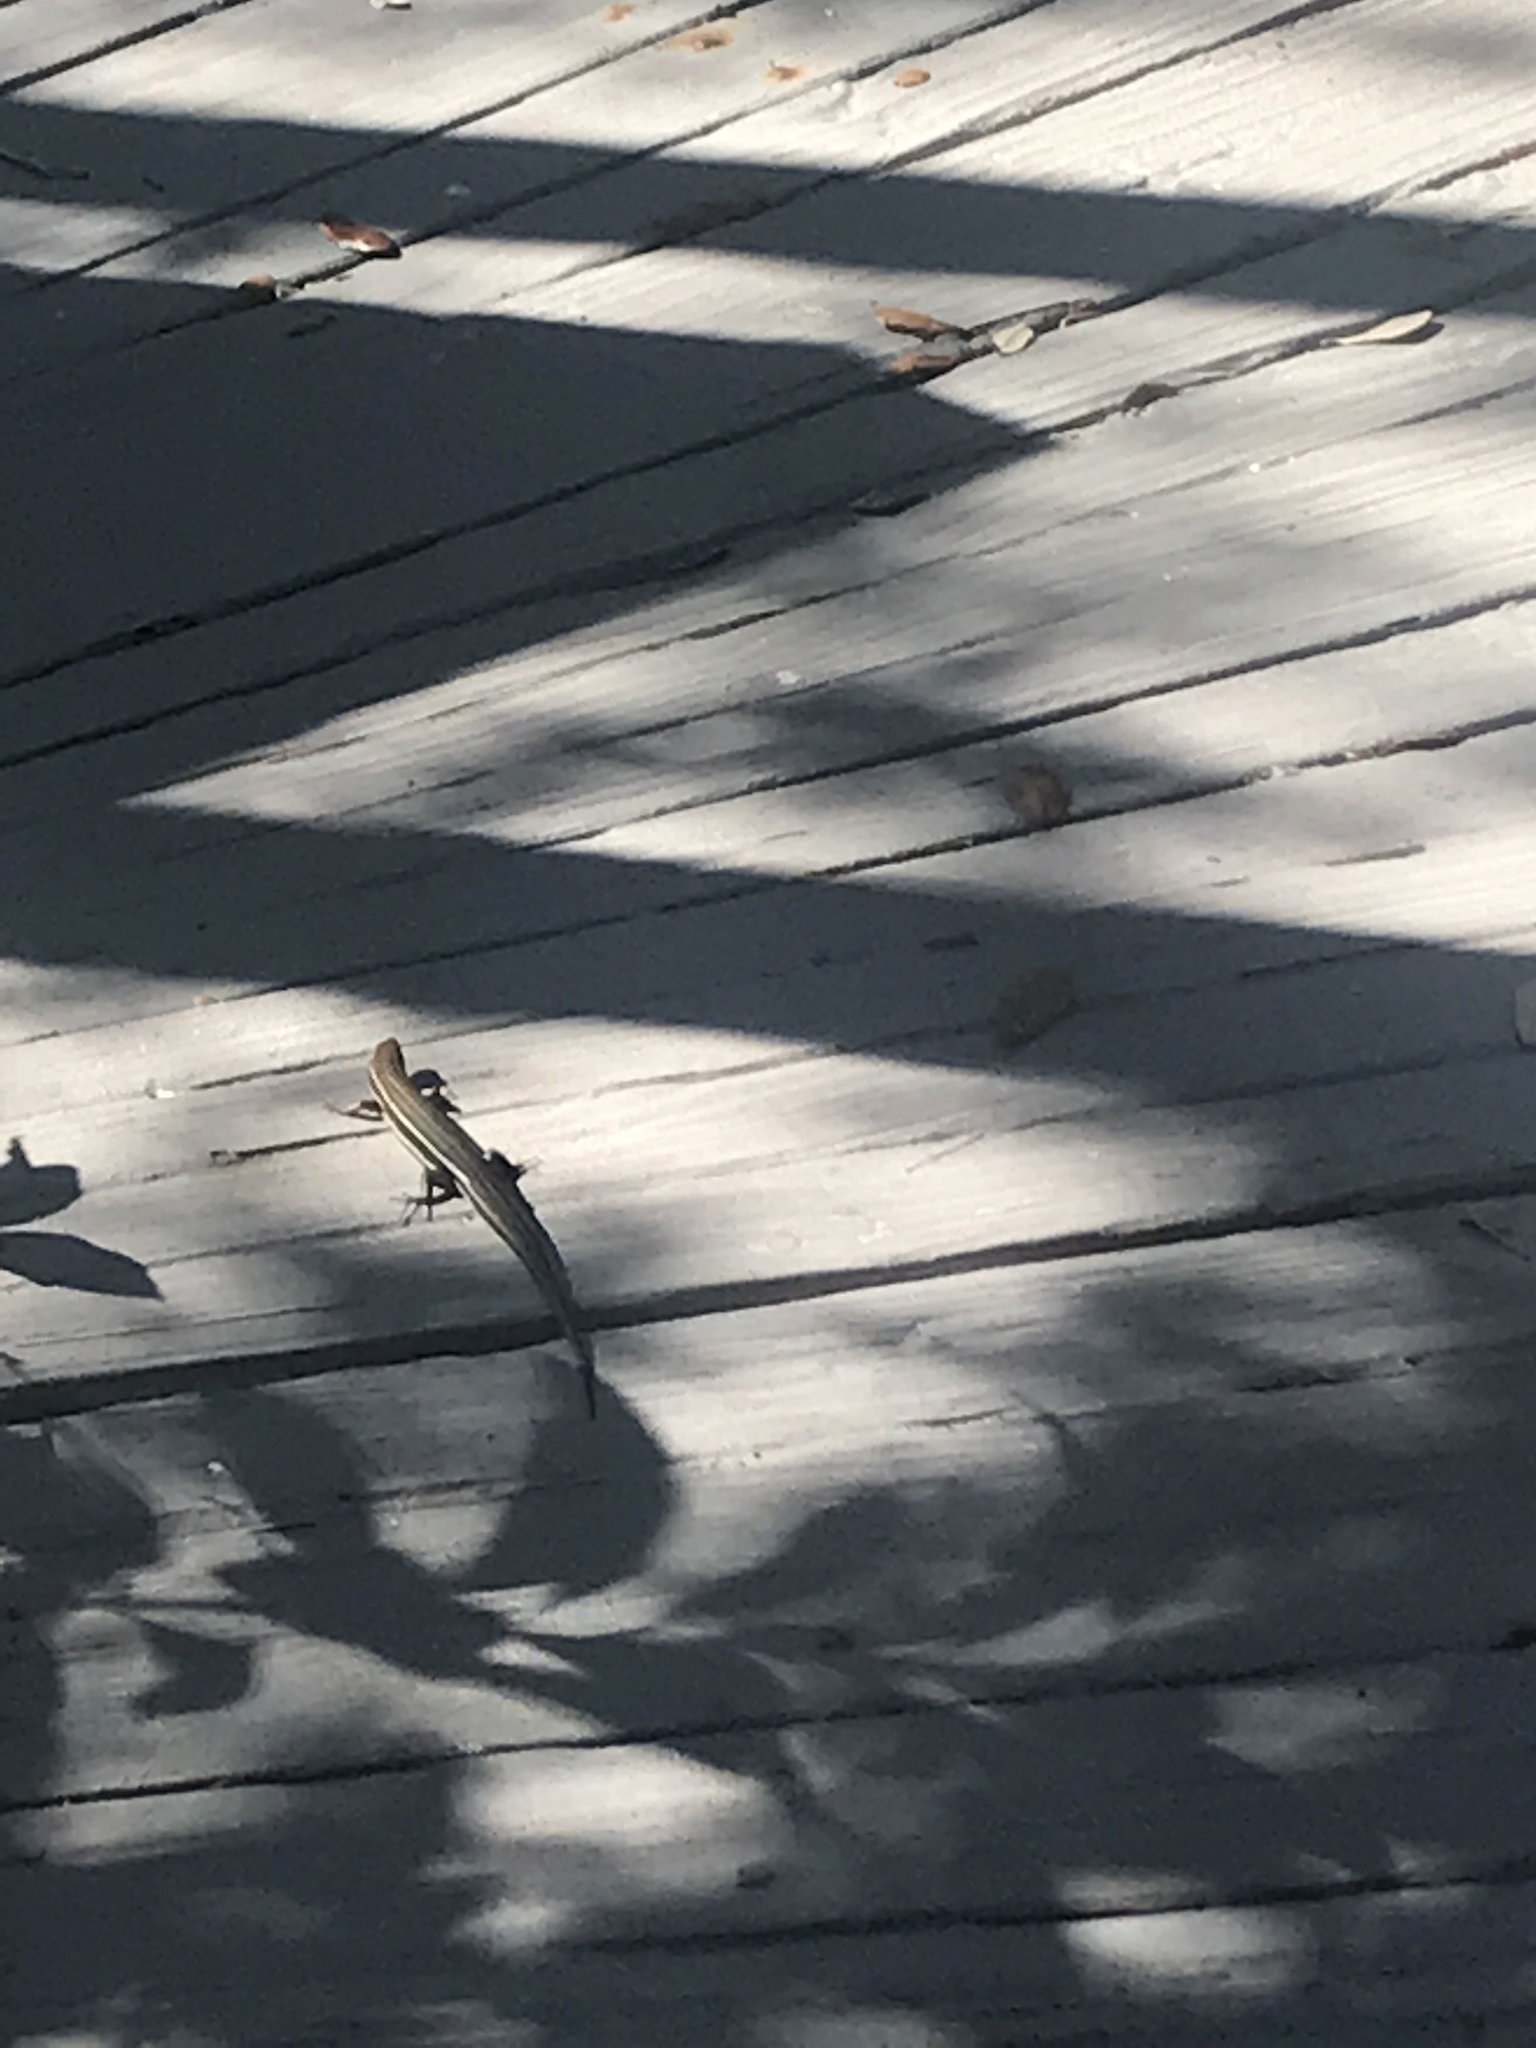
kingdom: Animalia
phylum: Chordata
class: Squamata
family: Scincidae
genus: Plestiodon
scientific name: Plestiodon inexpectatus
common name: Southeastern five-lined skink
